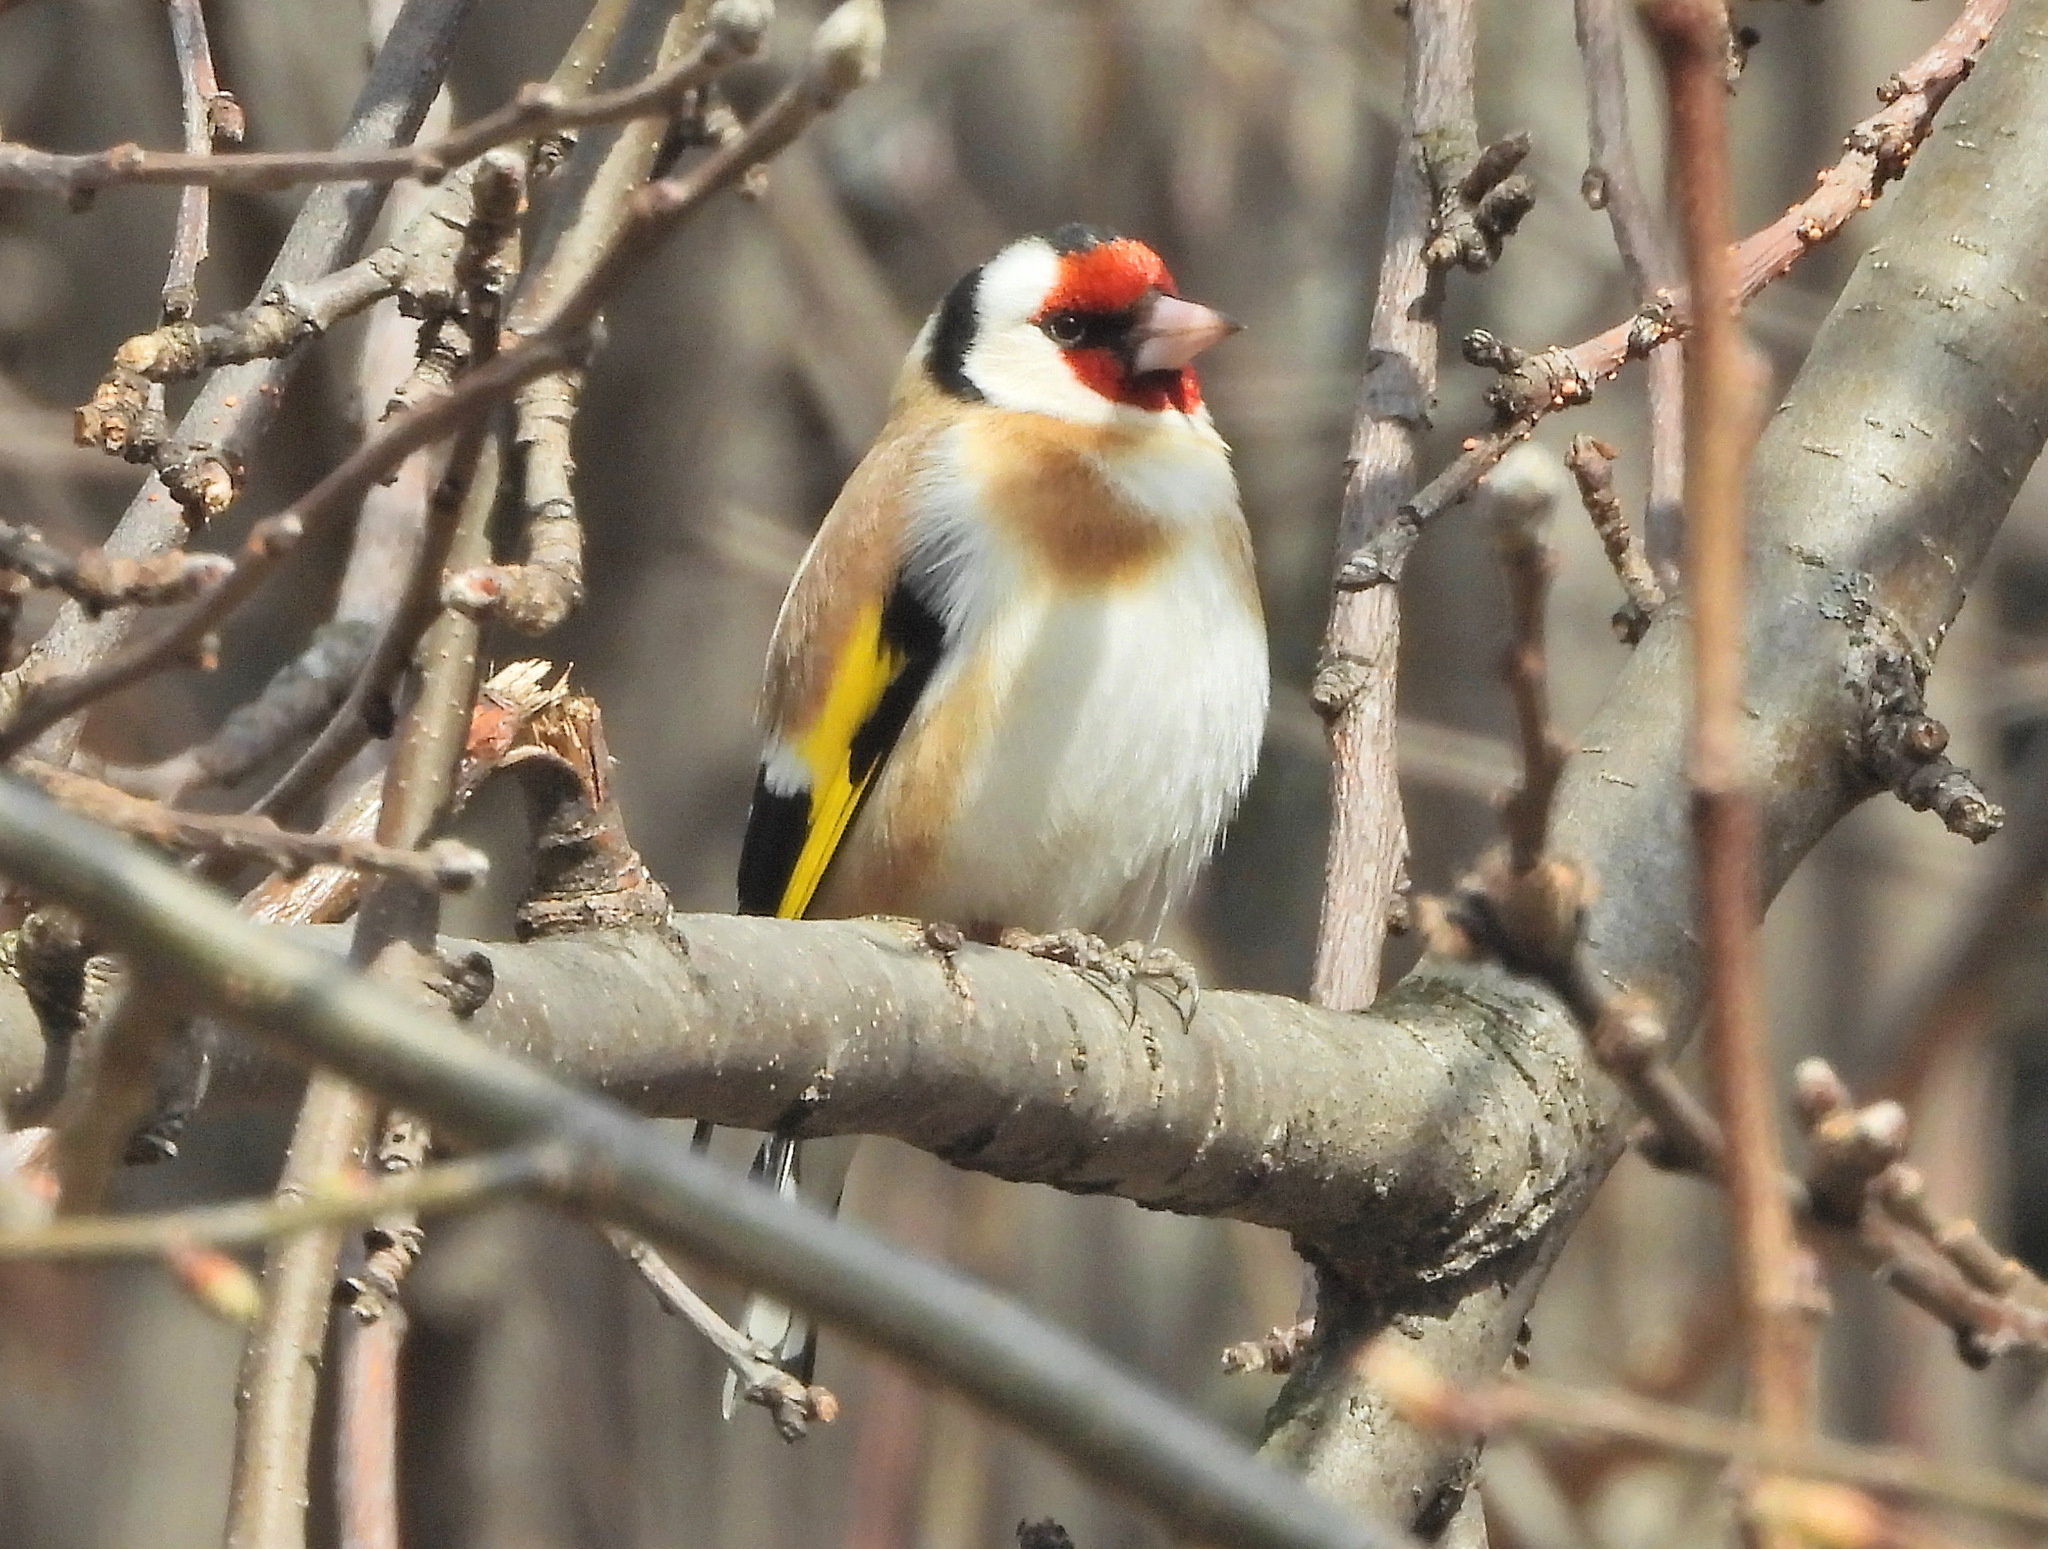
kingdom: Animalia
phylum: Chordata
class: Aves
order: Passeriformes
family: Fringillidae
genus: Carduelis
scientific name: Carduelis carduelis
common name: European goldfinch
